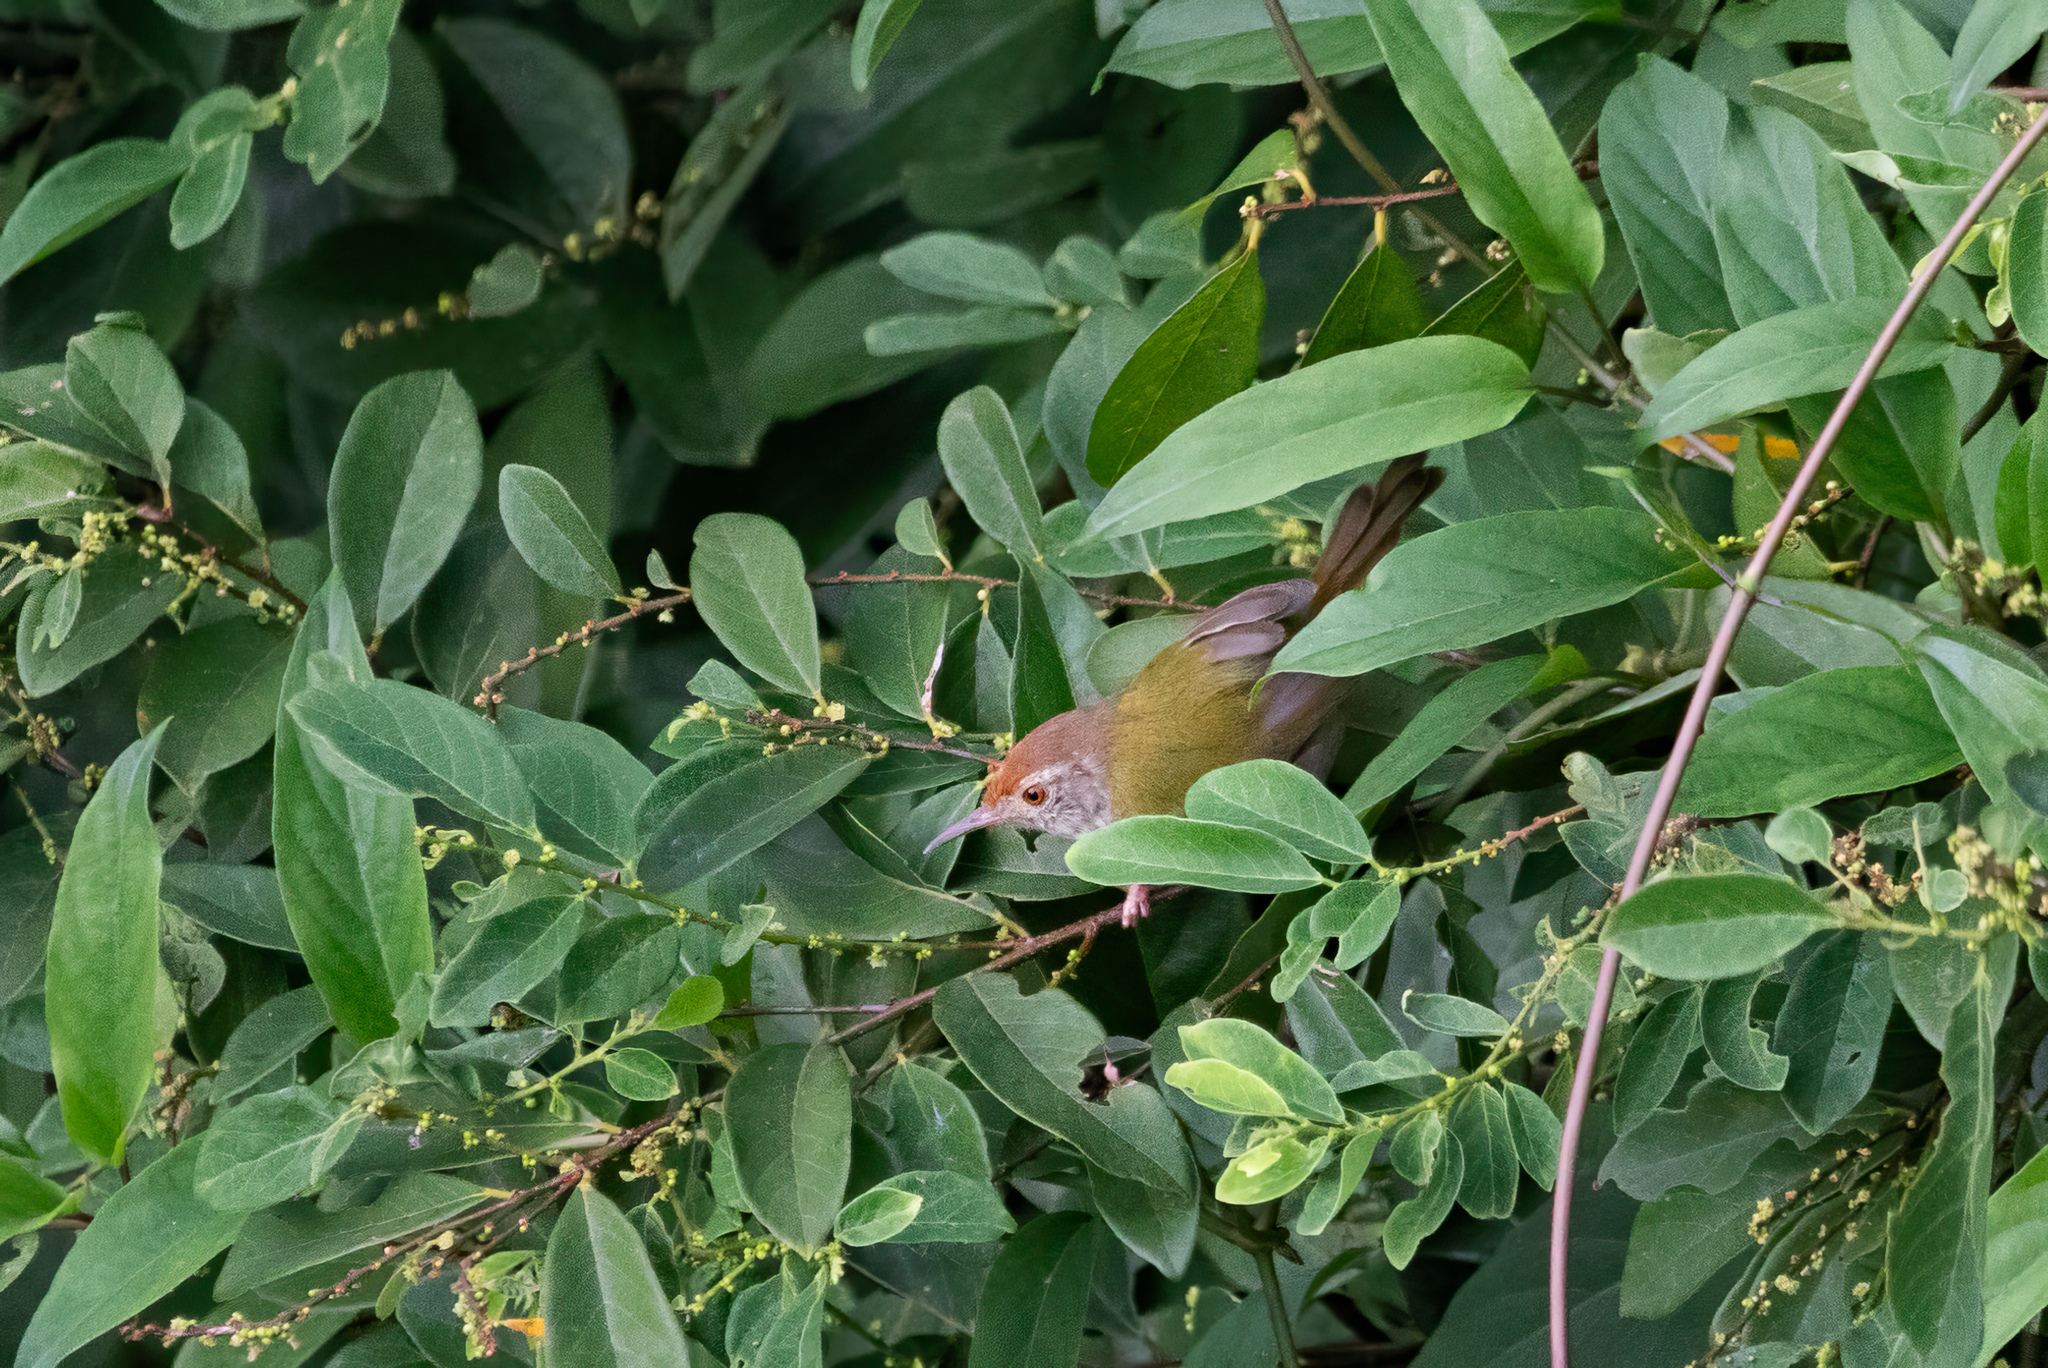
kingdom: Animalia
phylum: Chordata
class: Aves
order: Passeriformes
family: Cisticolidae
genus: Orthotomus
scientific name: Orthotomus sutorius
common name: Common tailorbird
